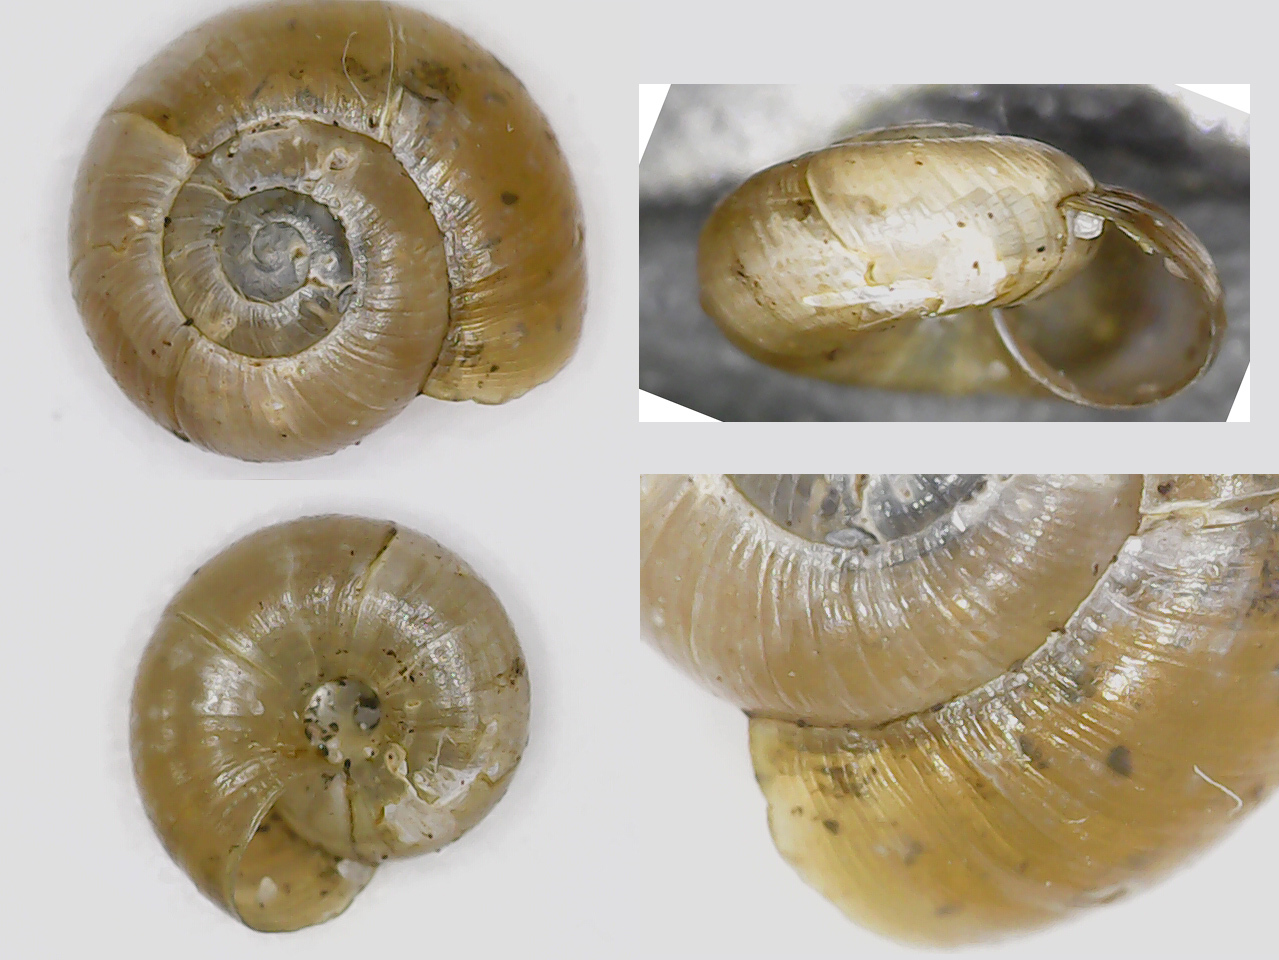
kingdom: Animalia
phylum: Mollusca
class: Gastropoda
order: Stylommatophora
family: Gastrodontidae
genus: Perpolita
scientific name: Perpolita hammonis
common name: Rayed glass snail
